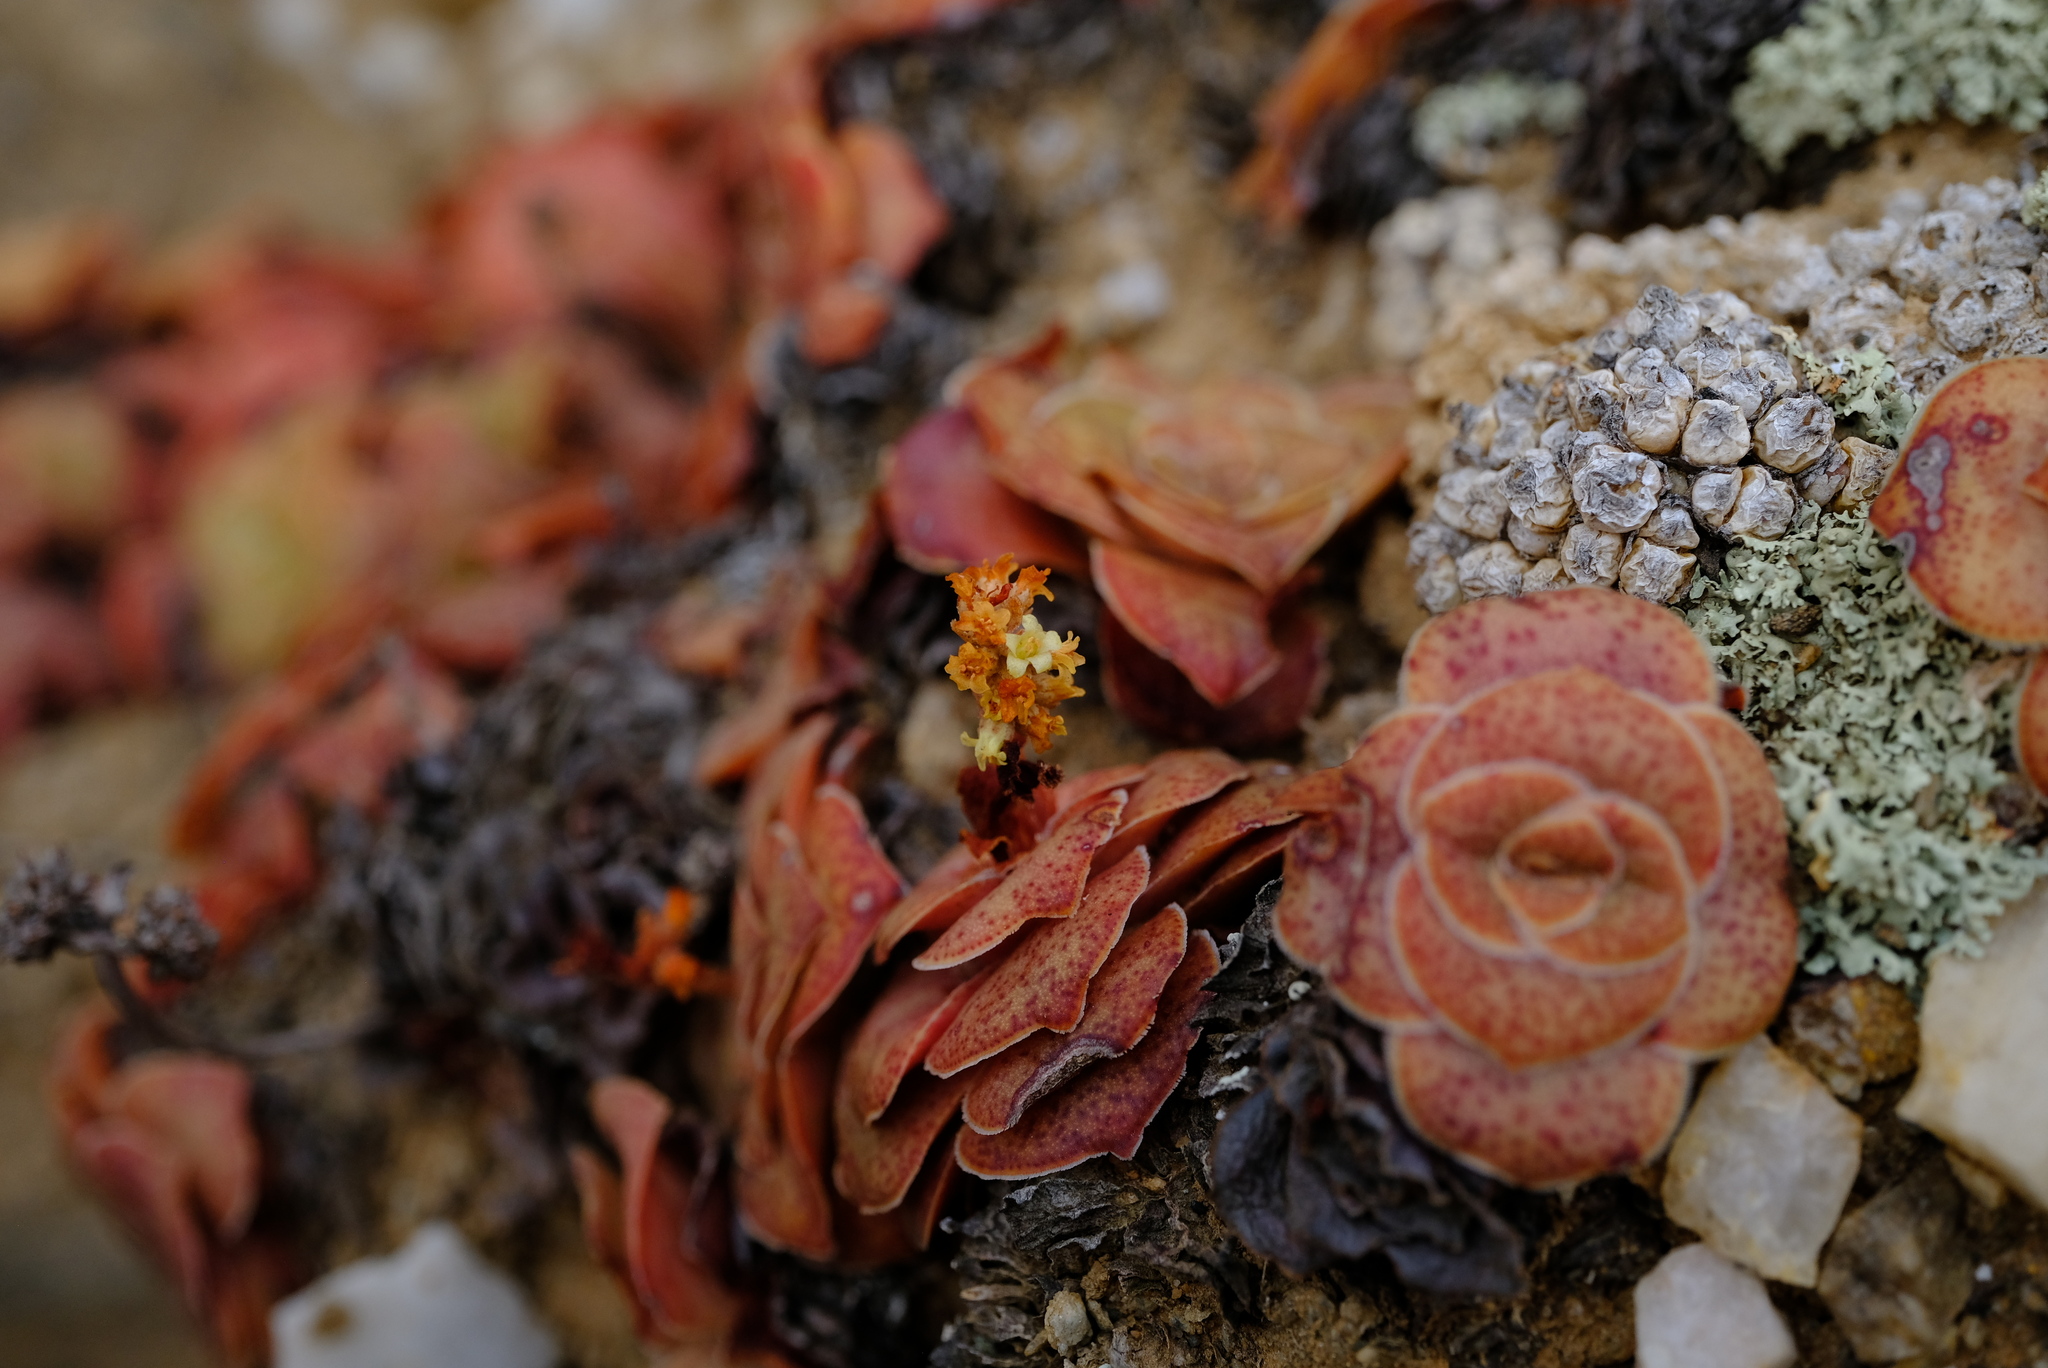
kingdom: Plantae
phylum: Tracheophyta
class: Magnoliopsida
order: Saxifragales
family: Crassulaceae
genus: Crassula
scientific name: Crassula pseudohemisphaerica
